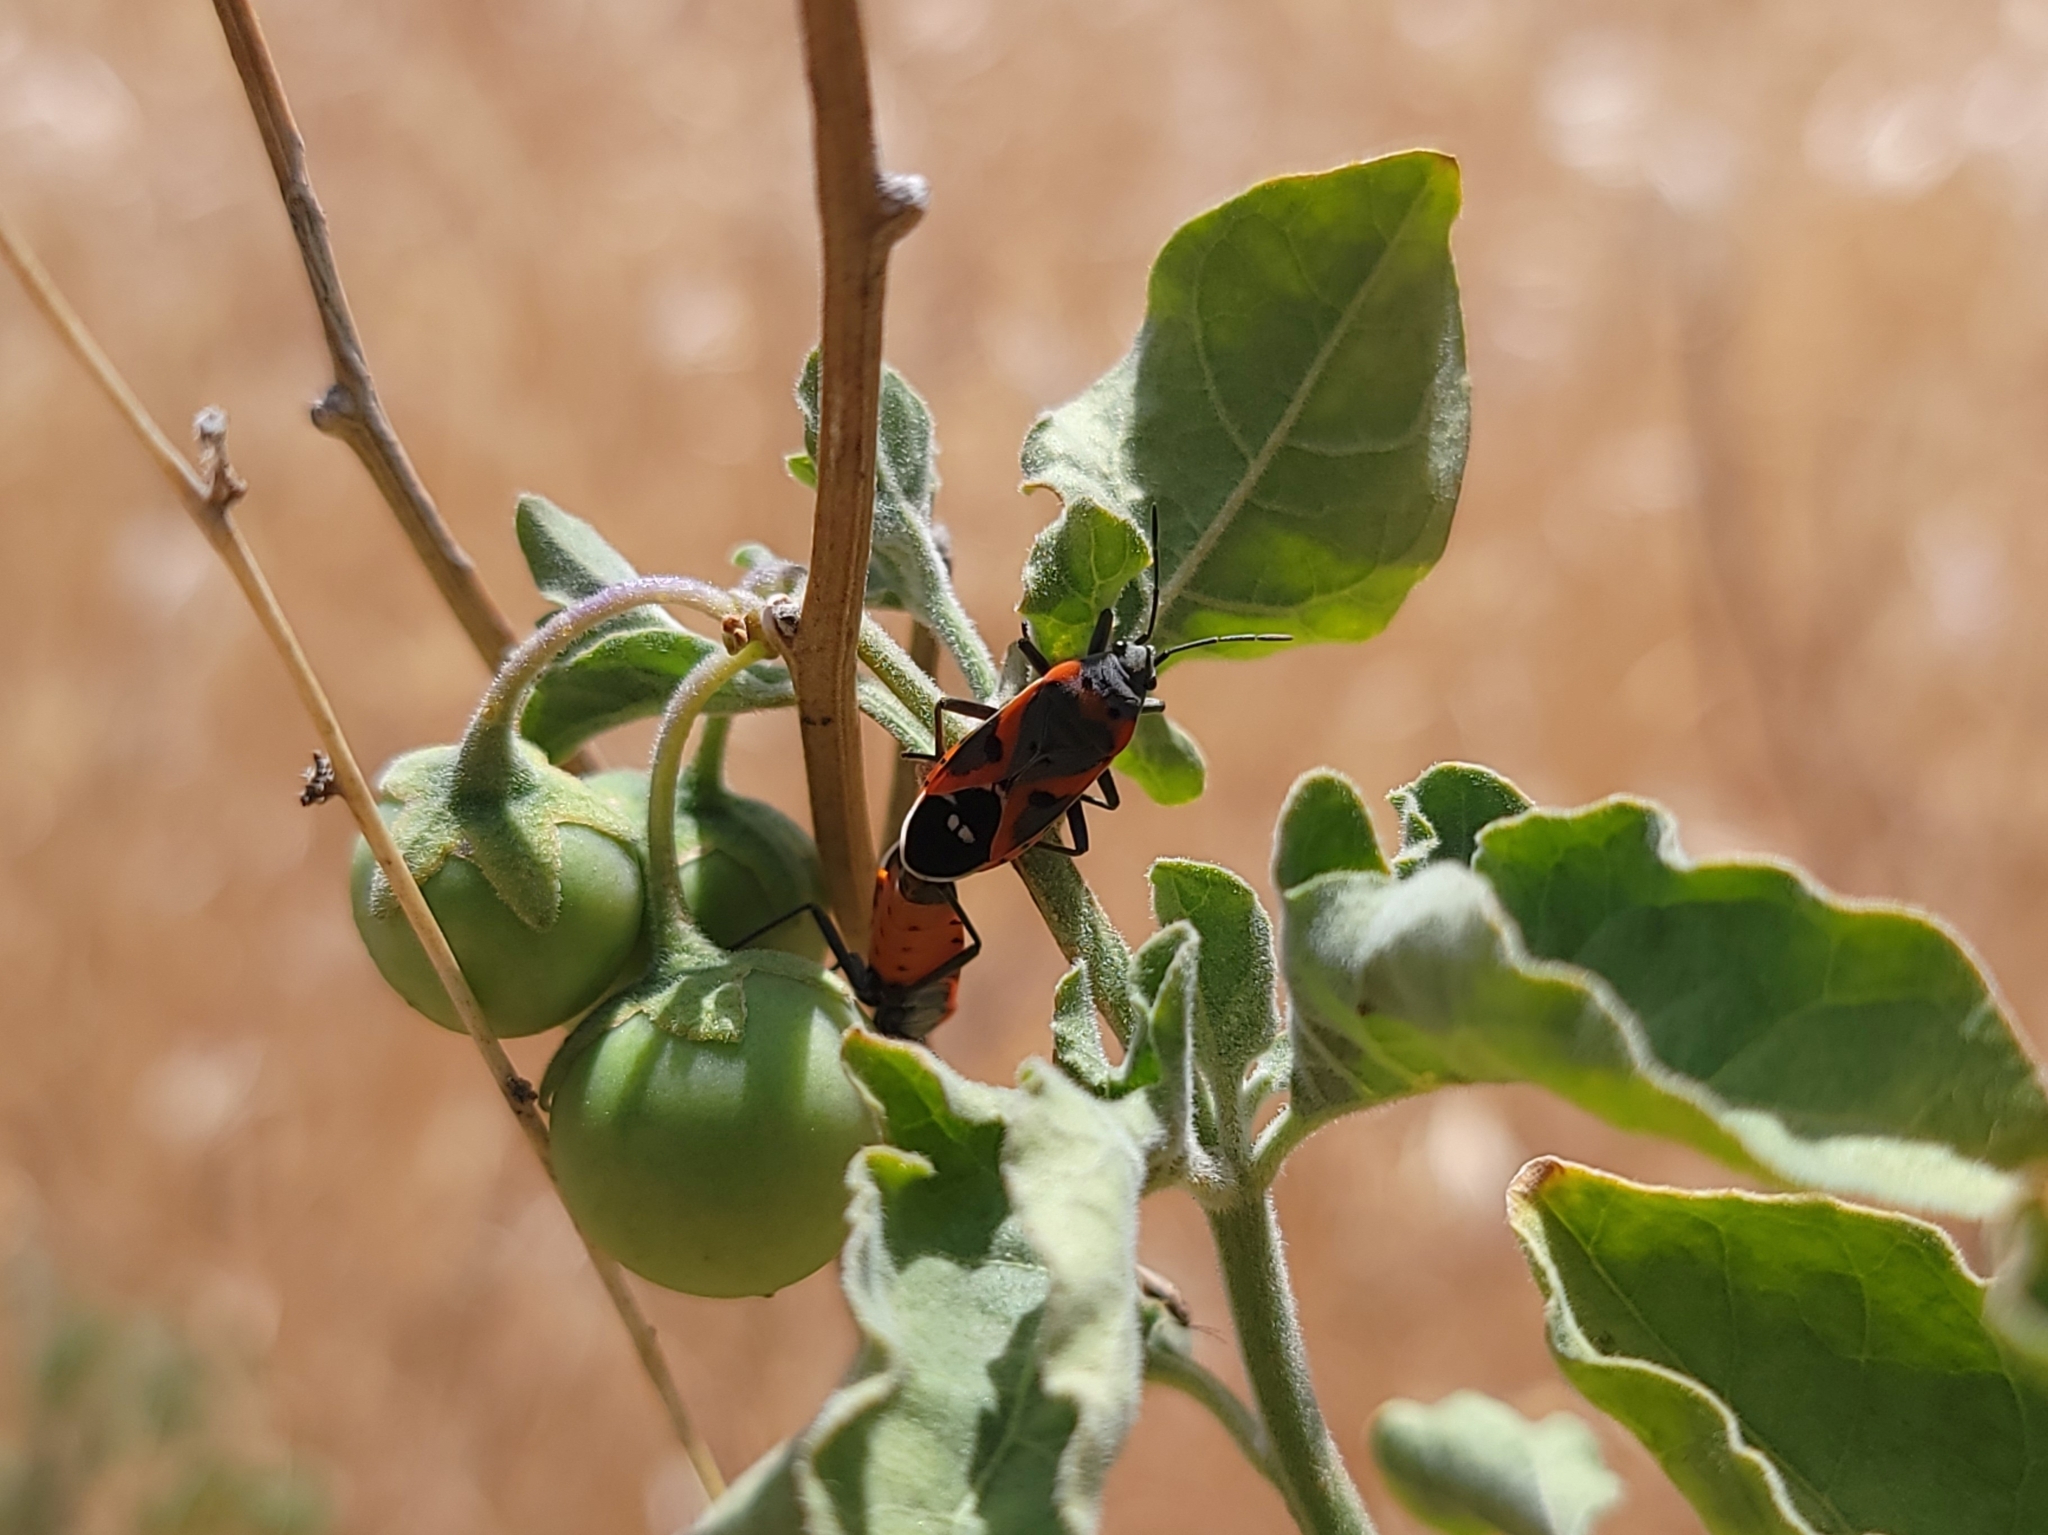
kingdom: Animalia
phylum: Arthropoda
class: Insecta
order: Hemiptera
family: Lygaeidae
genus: Lygaeus
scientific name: Lygaeus kalmii
